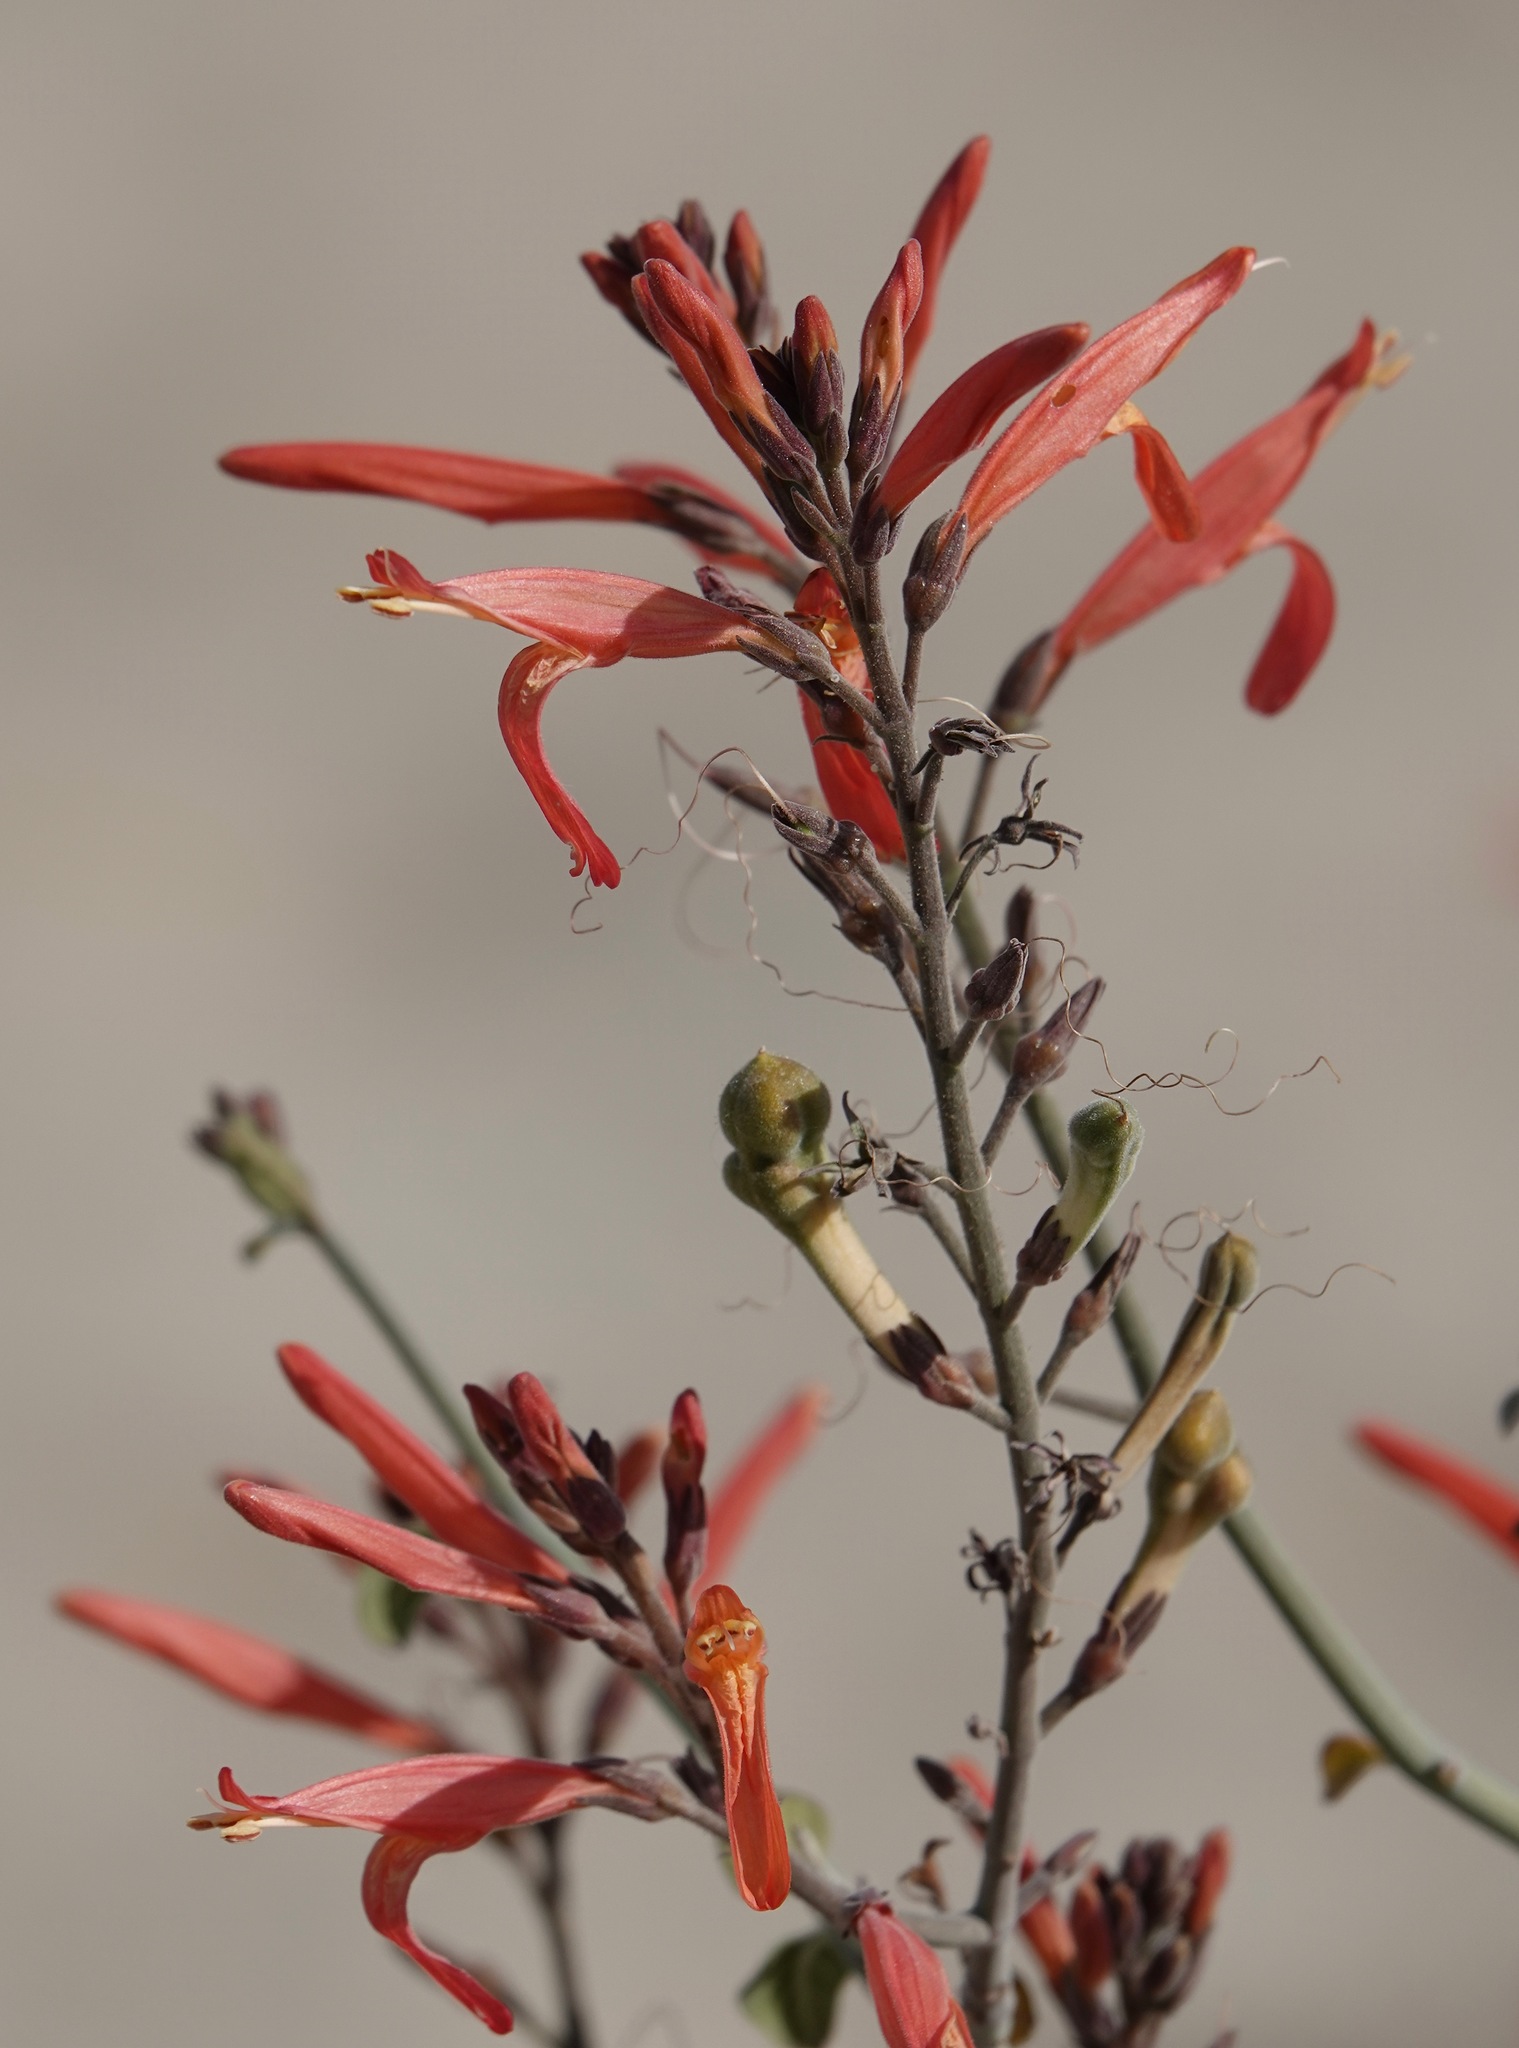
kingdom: Plantae
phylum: Tracheophyta
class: Magnoliopsida
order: Lamiales
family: Acanthaceae
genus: Justicia
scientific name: Justicia californica
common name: Chuparosa-honeysuckle
